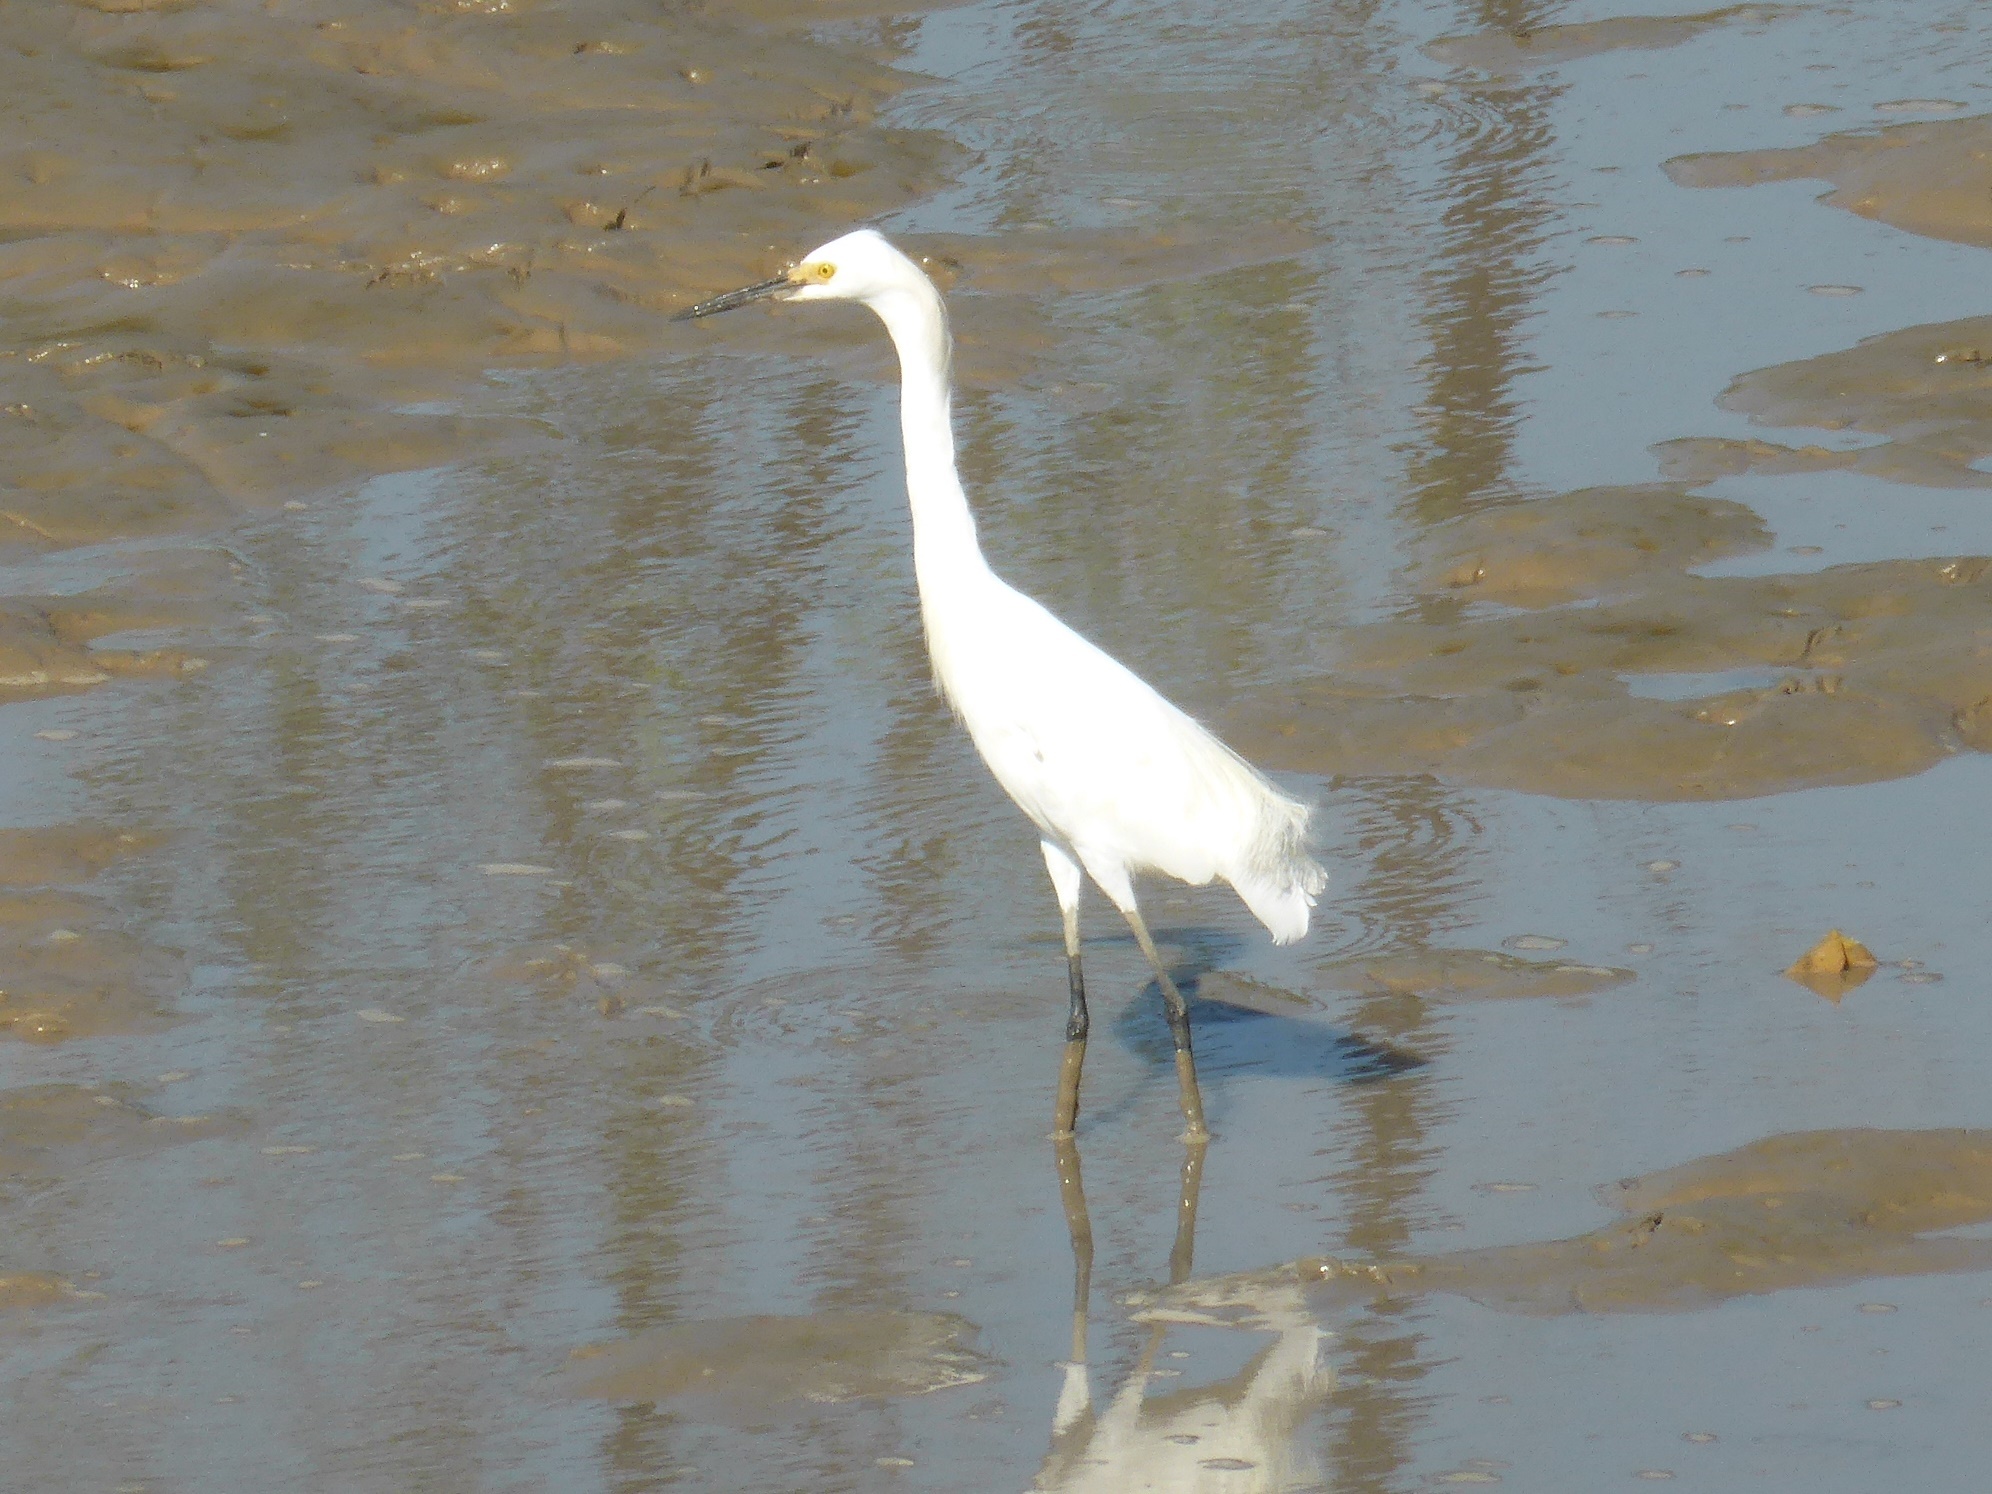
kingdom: Animalia
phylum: Chordata
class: Aves
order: Pelecaniformes
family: Ardeidae
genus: Egretta
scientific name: Egretta thula
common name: Snowy egret
